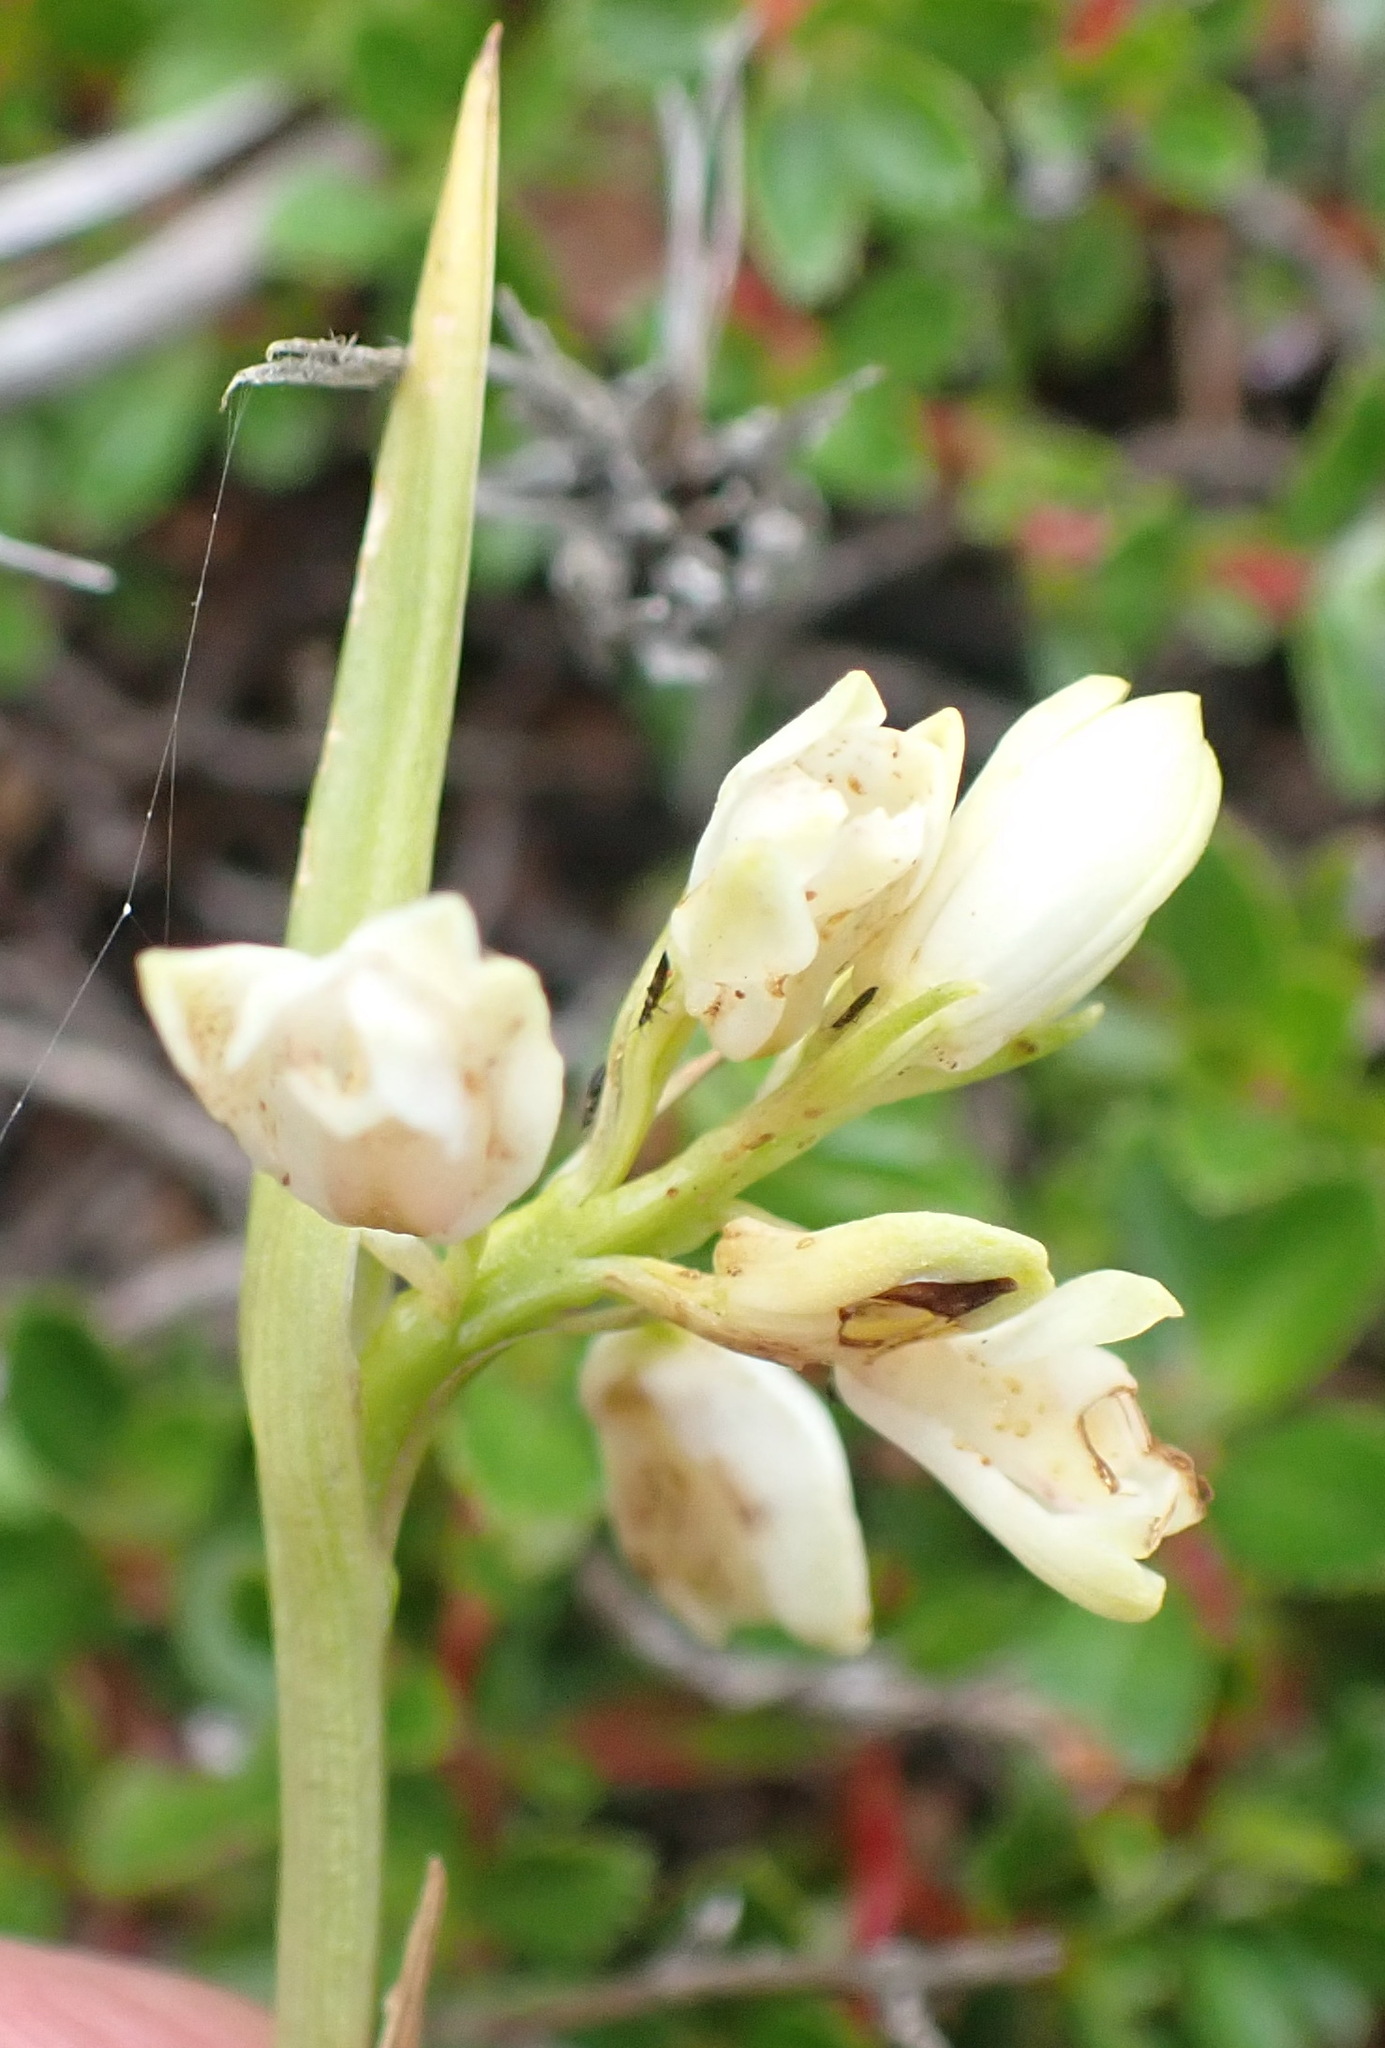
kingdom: Plantae
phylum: Tracheophyta
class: Liliopsida
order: Asparagales
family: Orchidaceae
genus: Eulophia
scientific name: Eulophia aculeata
